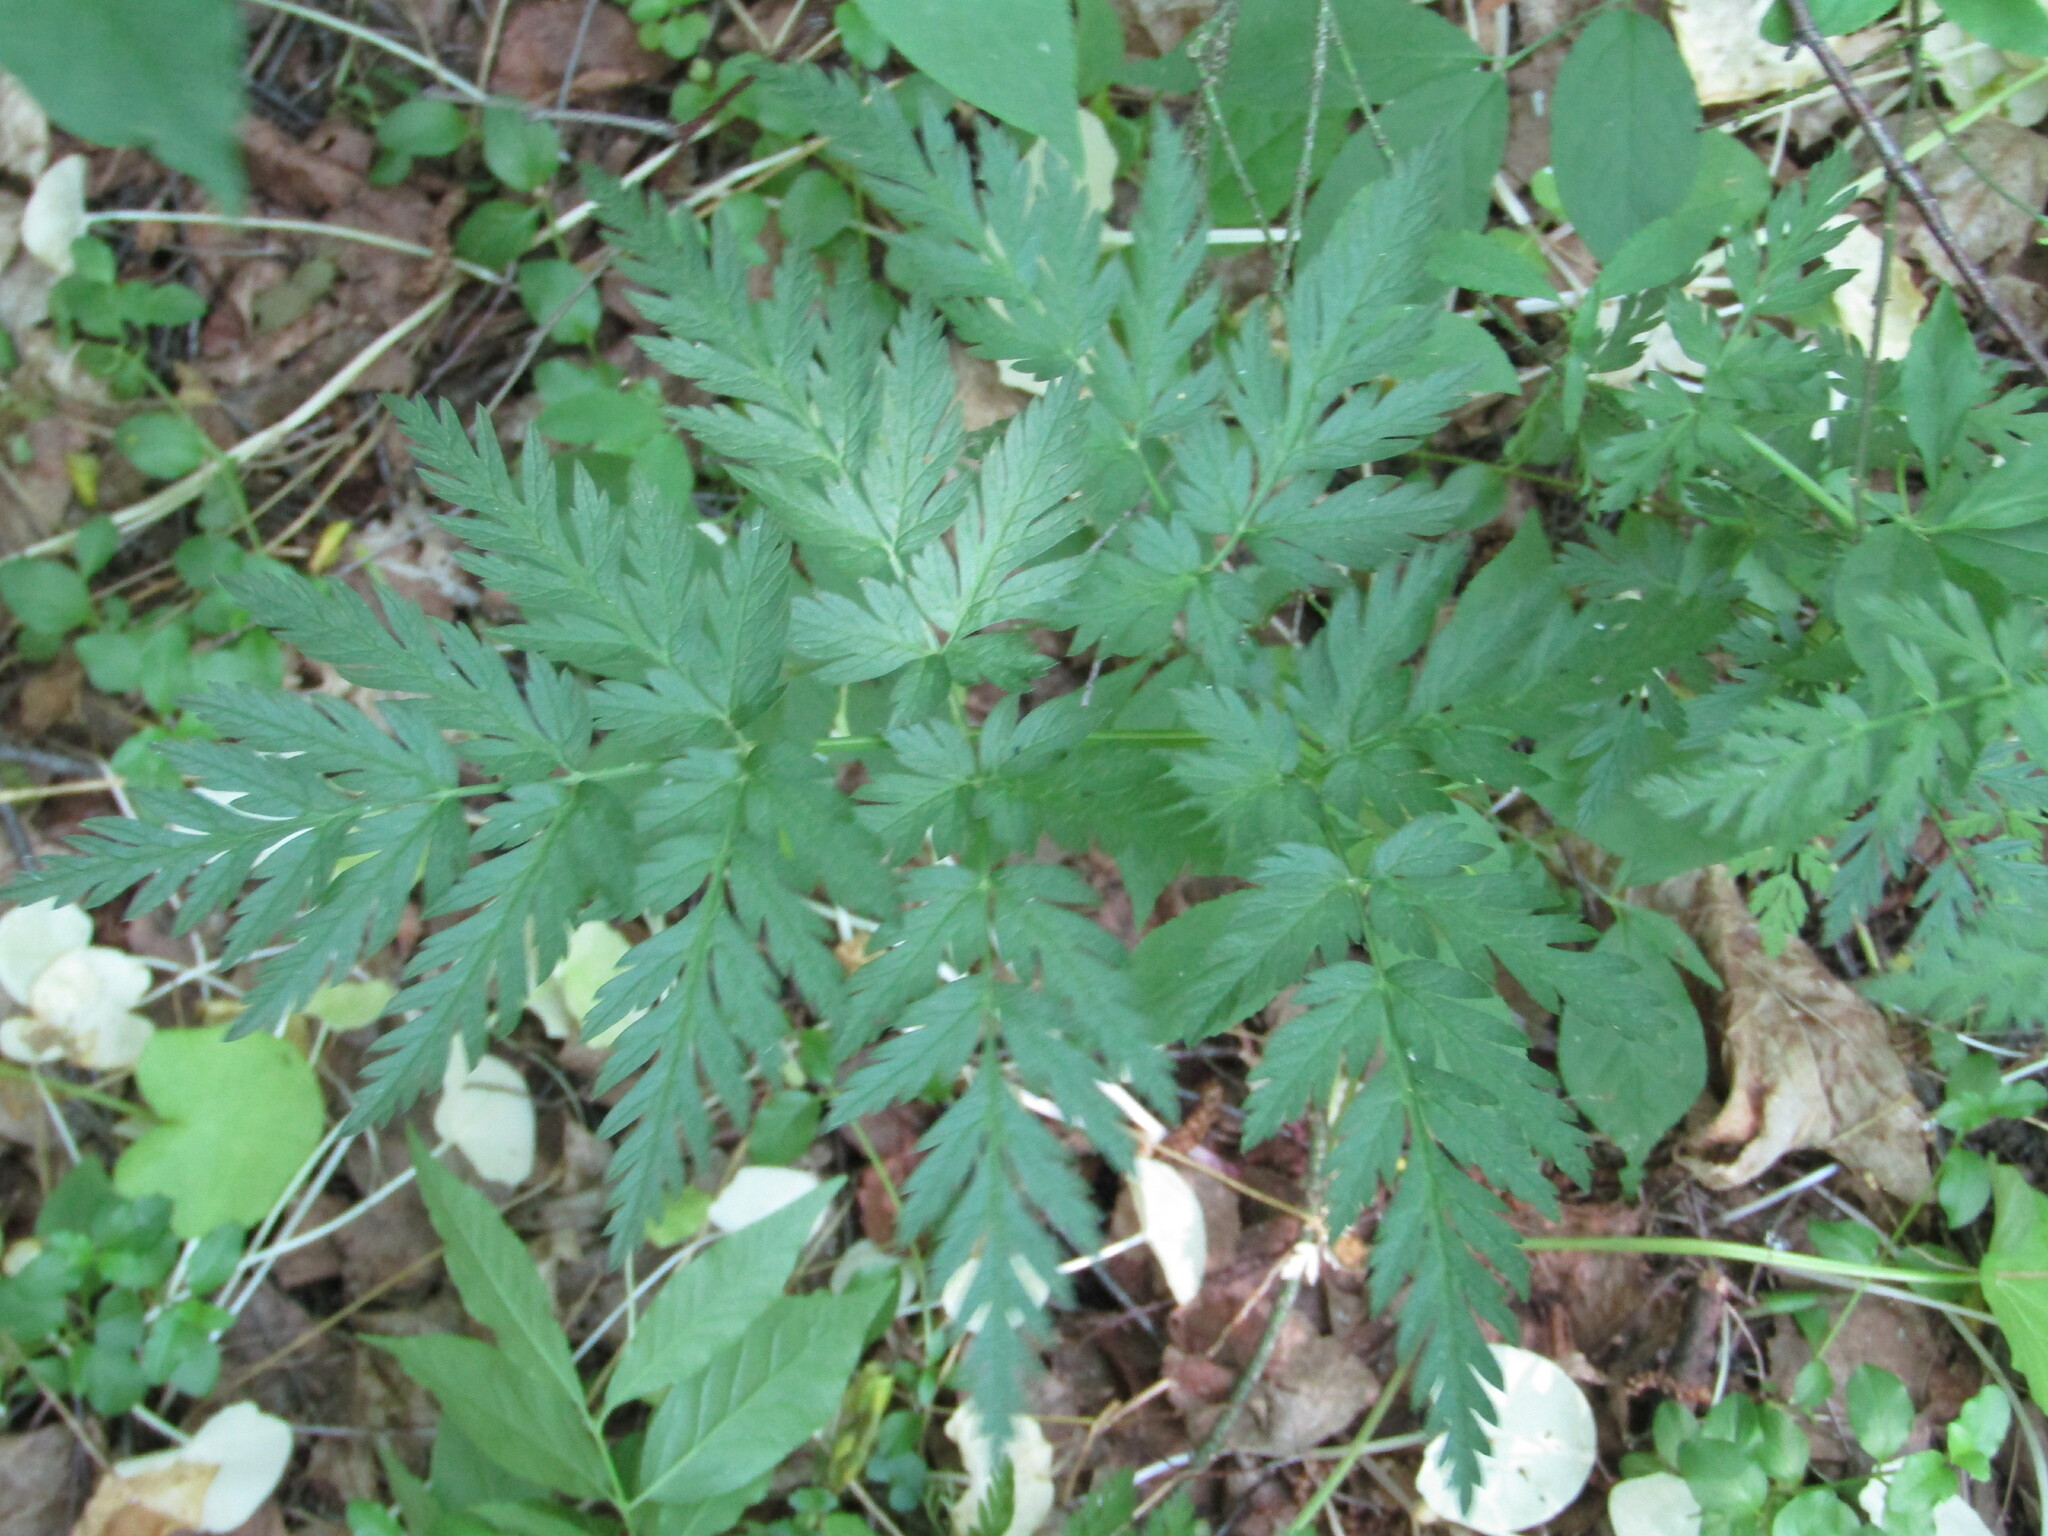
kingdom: Plantae
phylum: Tracheophyta
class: Magnoliopsida
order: Apiales
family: Apiaceae
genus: Anthriscus
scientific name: Anthriscus sylvestris
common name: Cow parsley
